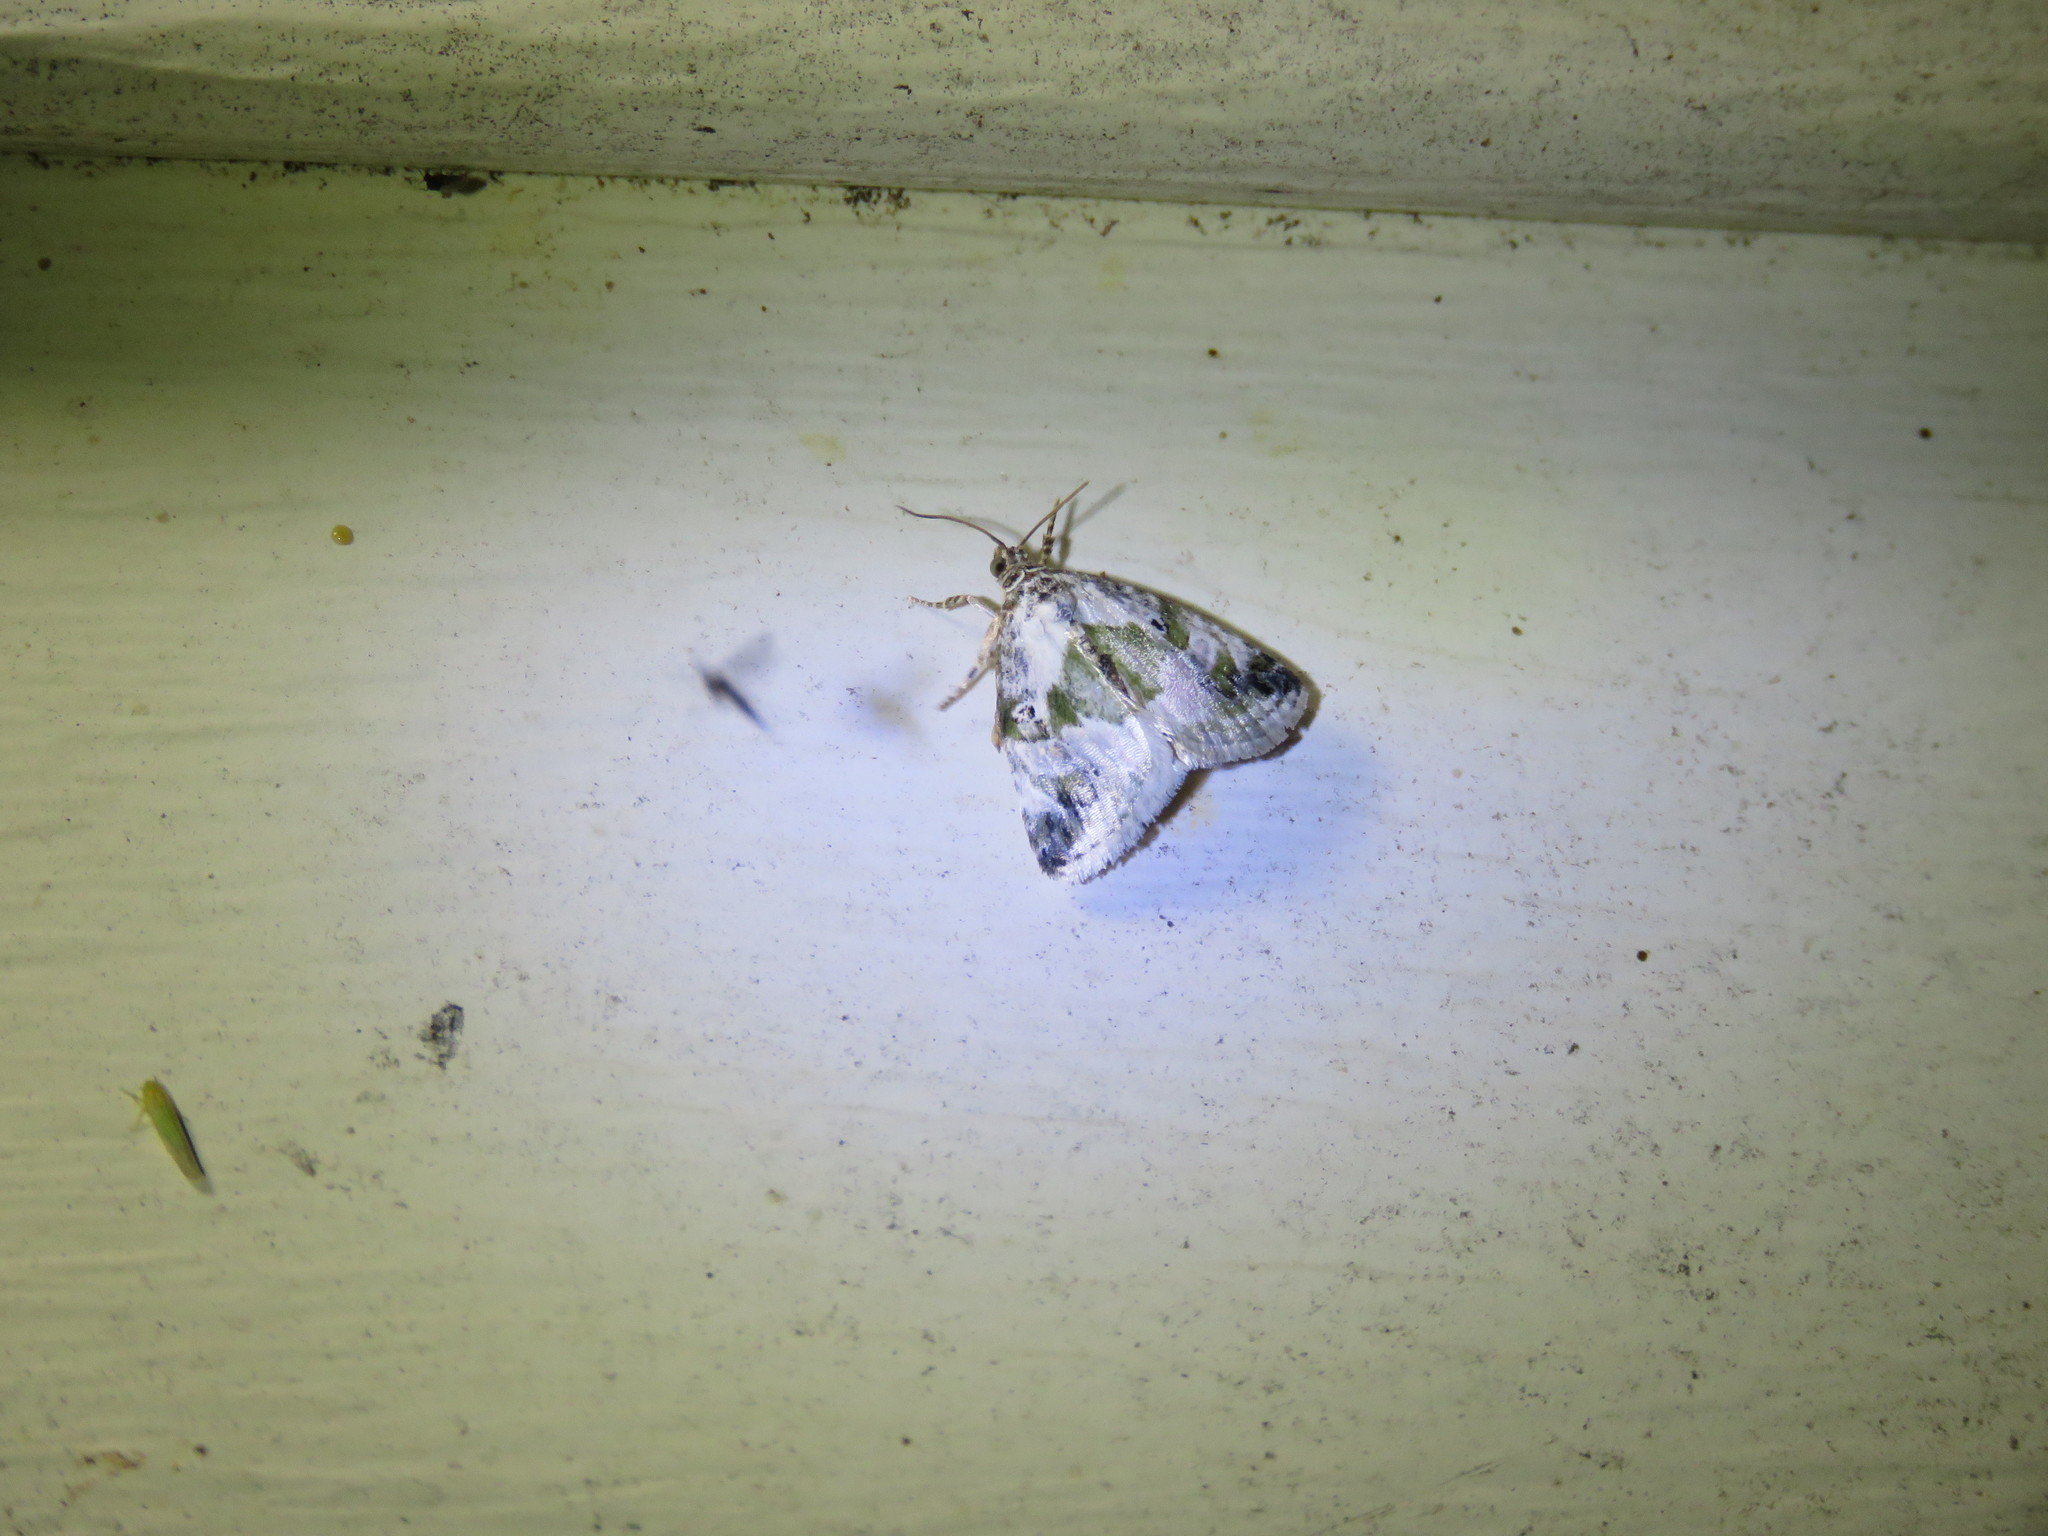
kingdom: Animalia
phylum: Arthropoda
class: Insecta
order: Lepidoptera
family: Noctuidae
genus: Maliattha
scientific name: Maliattha synochitis
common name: Black-dotted glyph
